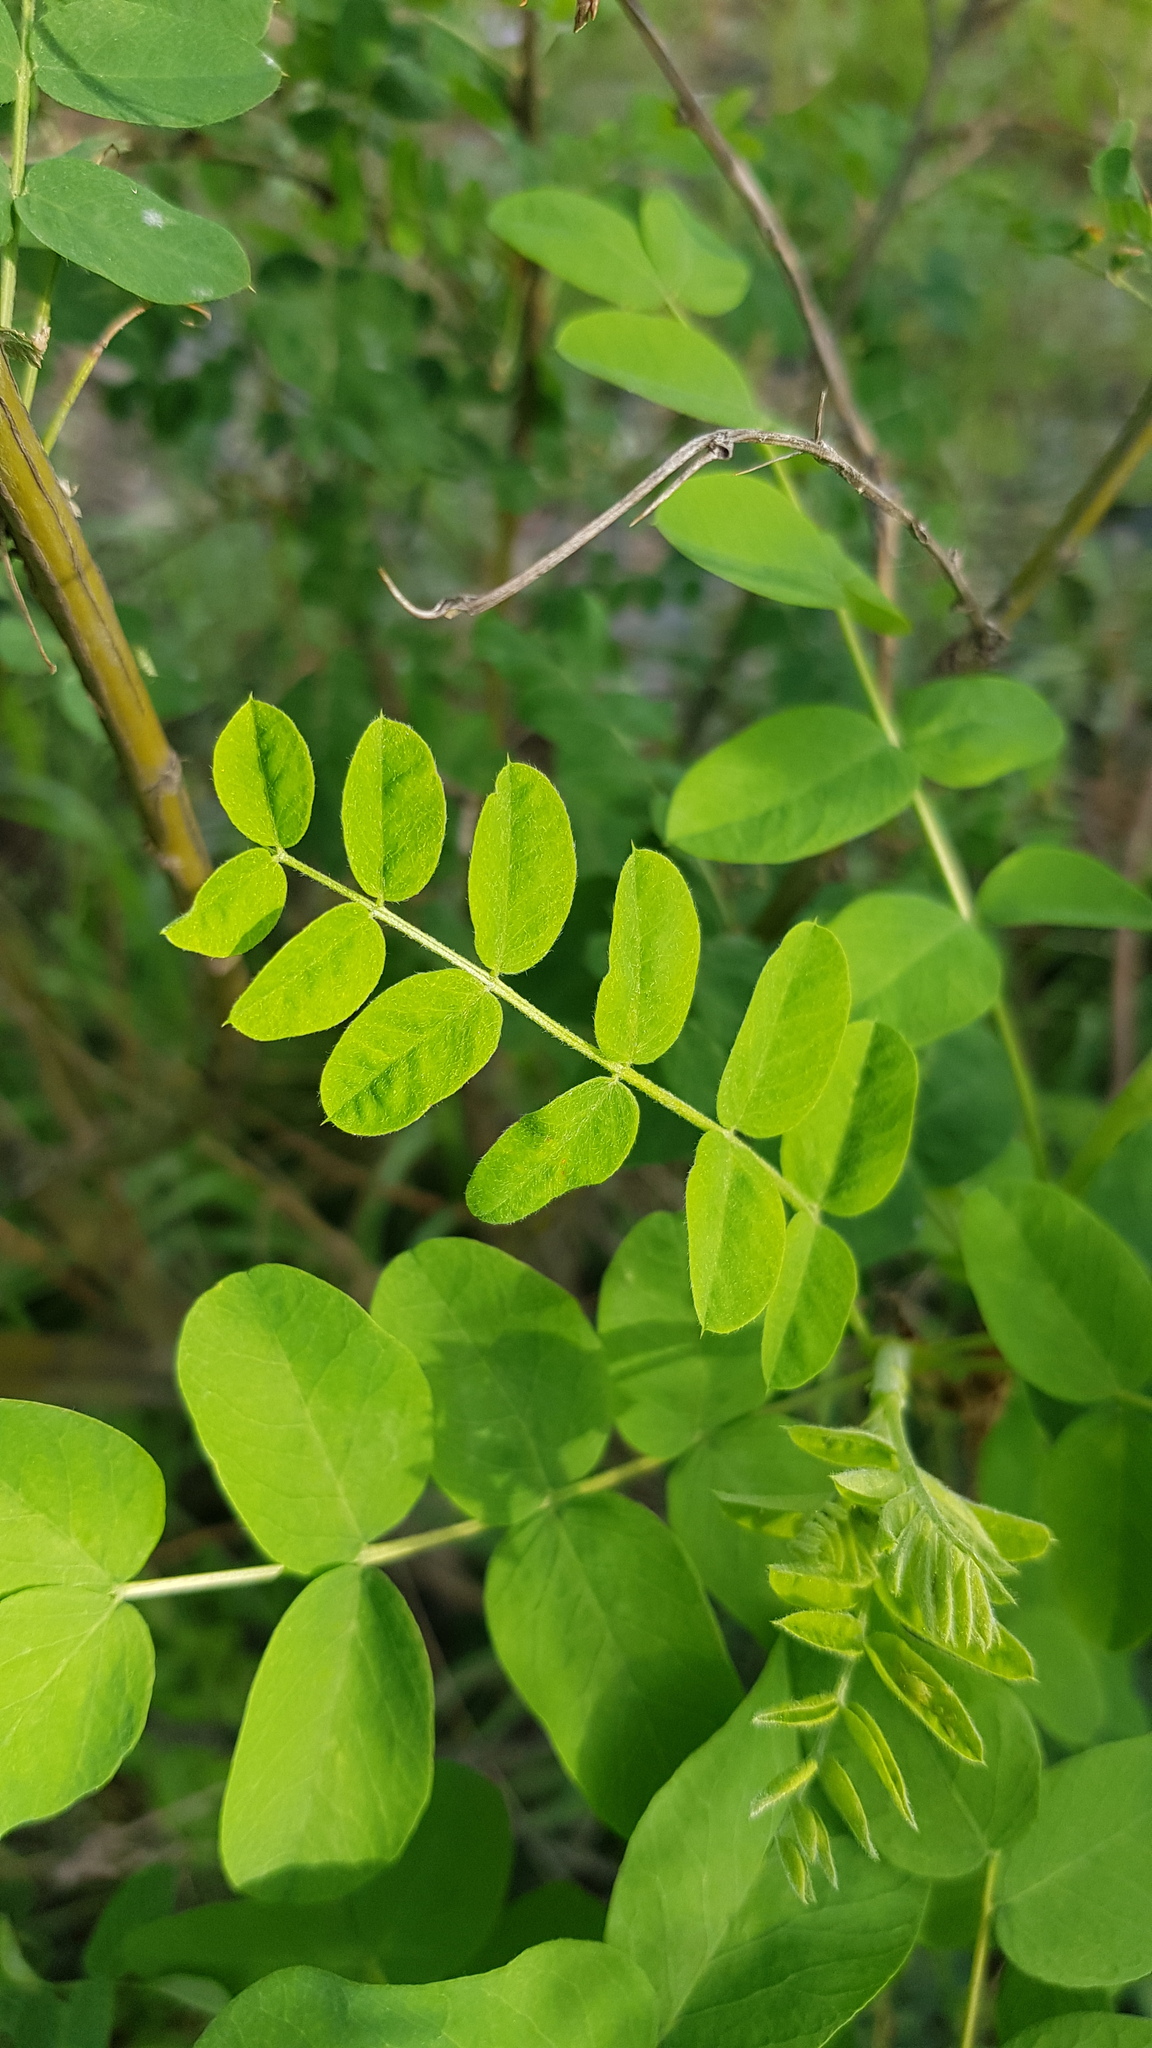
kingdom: Plantae
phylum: Tracheophyta
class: Magnoliopsida
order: Fabales
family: Fabaceae
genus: Caragana
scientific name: Caragana arborescens
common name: Siberian peashrub
